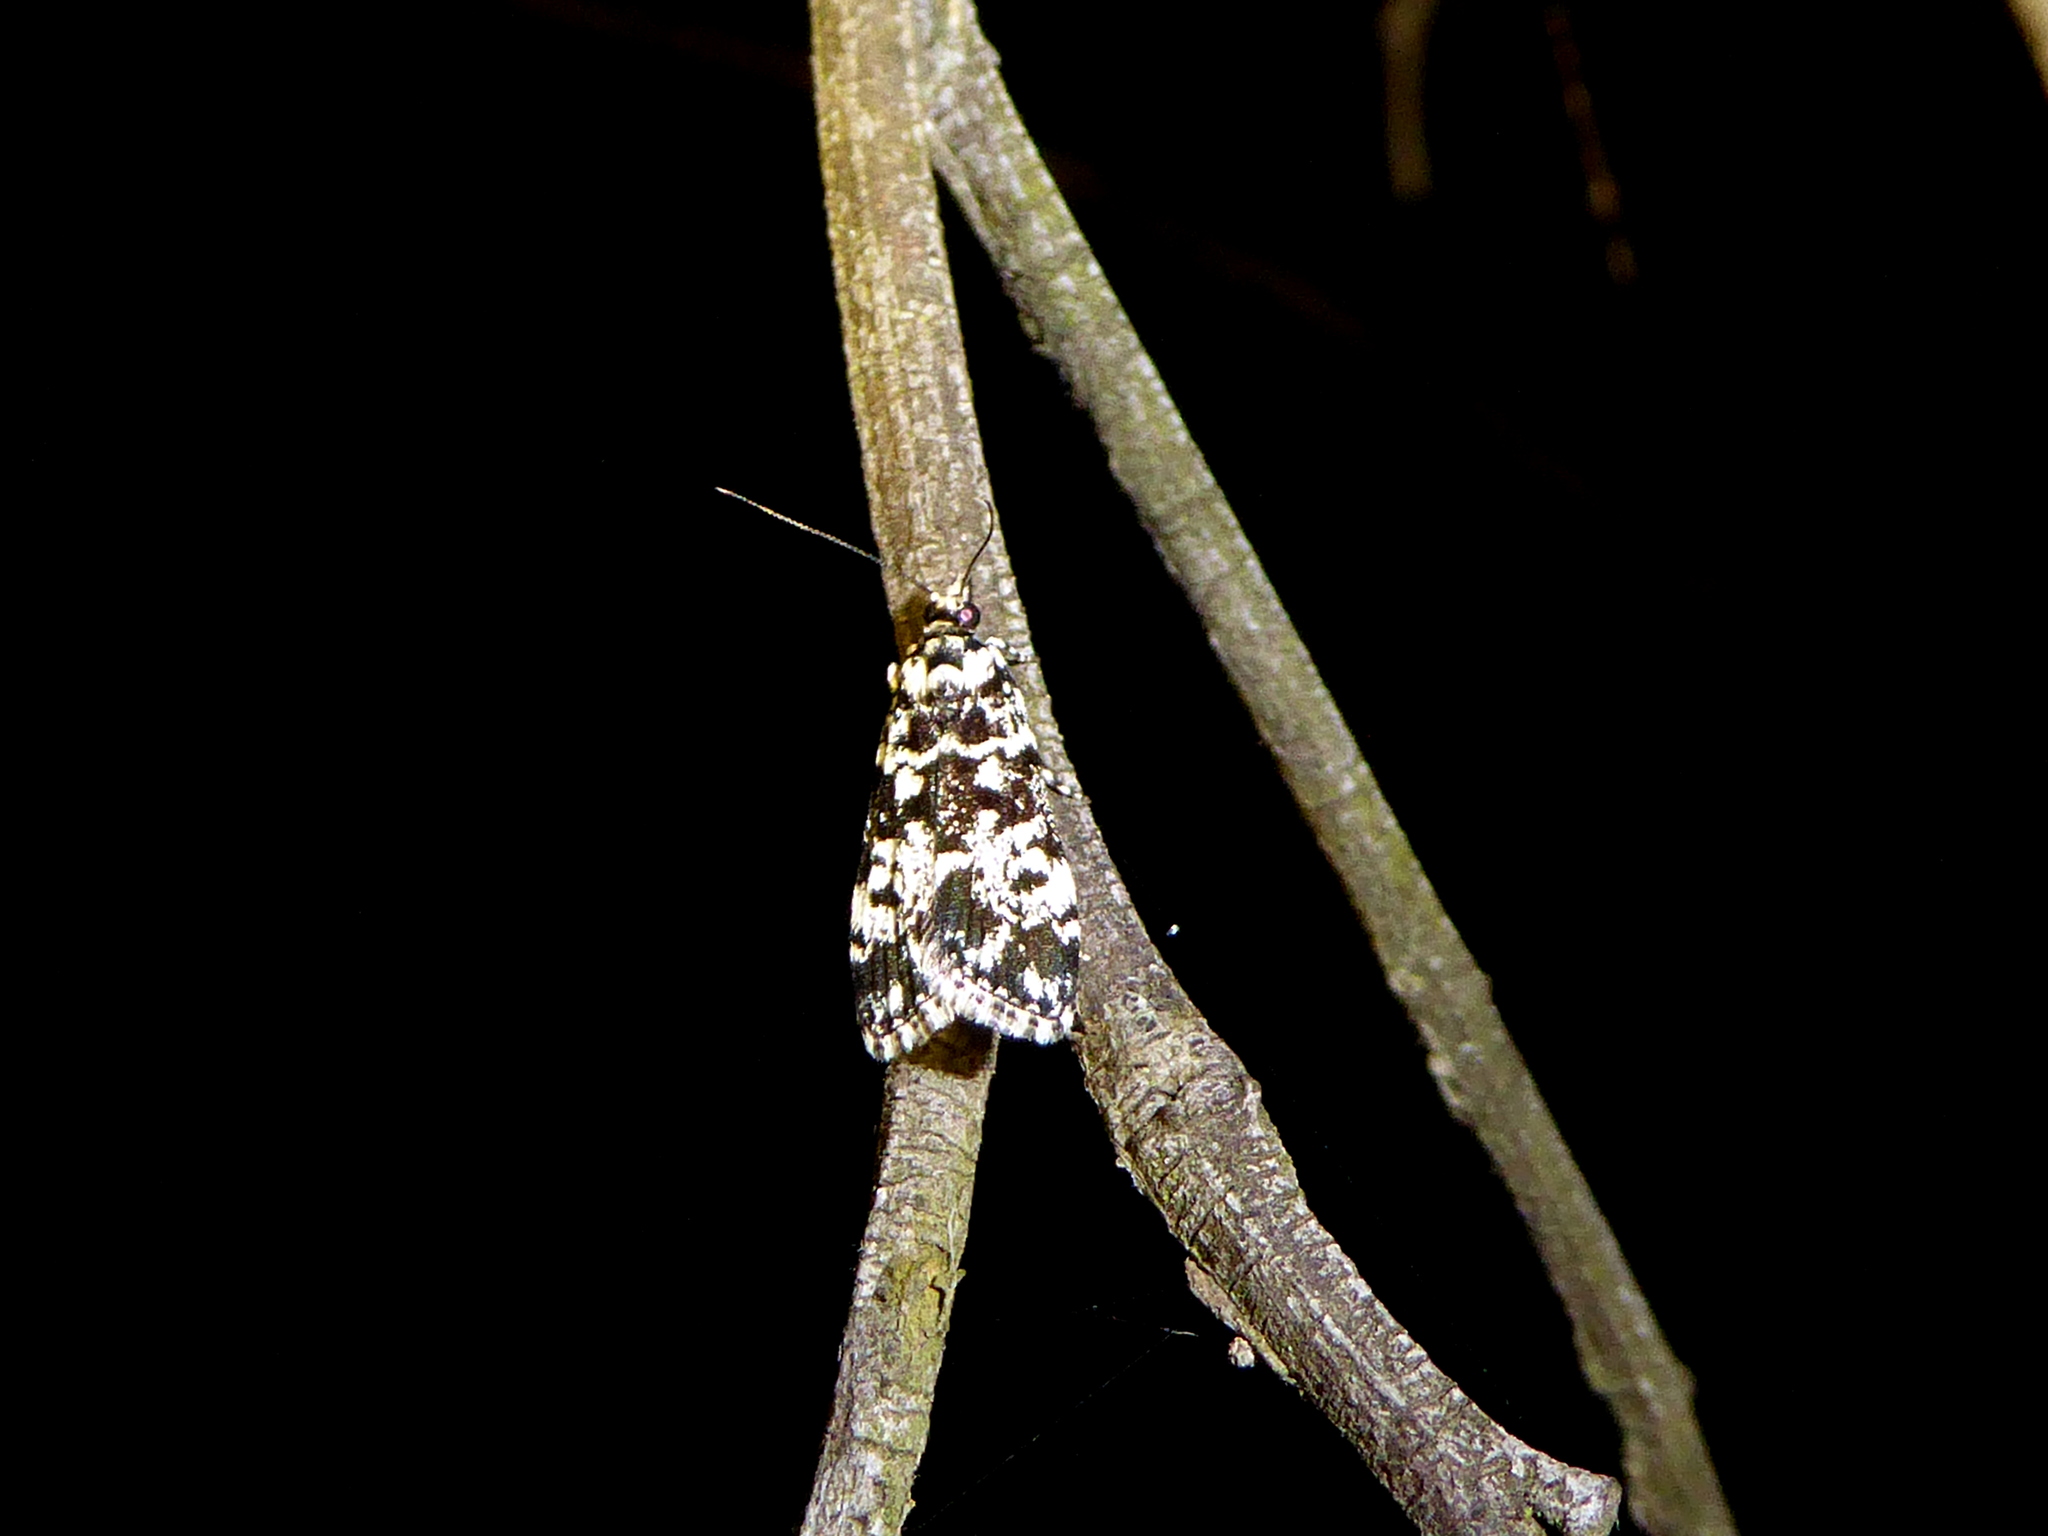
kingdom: Animalia
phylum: Arthropoda
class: Insecta
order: Lepidoptera
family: Crambidae
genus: Scoparia
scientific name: Scoparia exhibitalis
